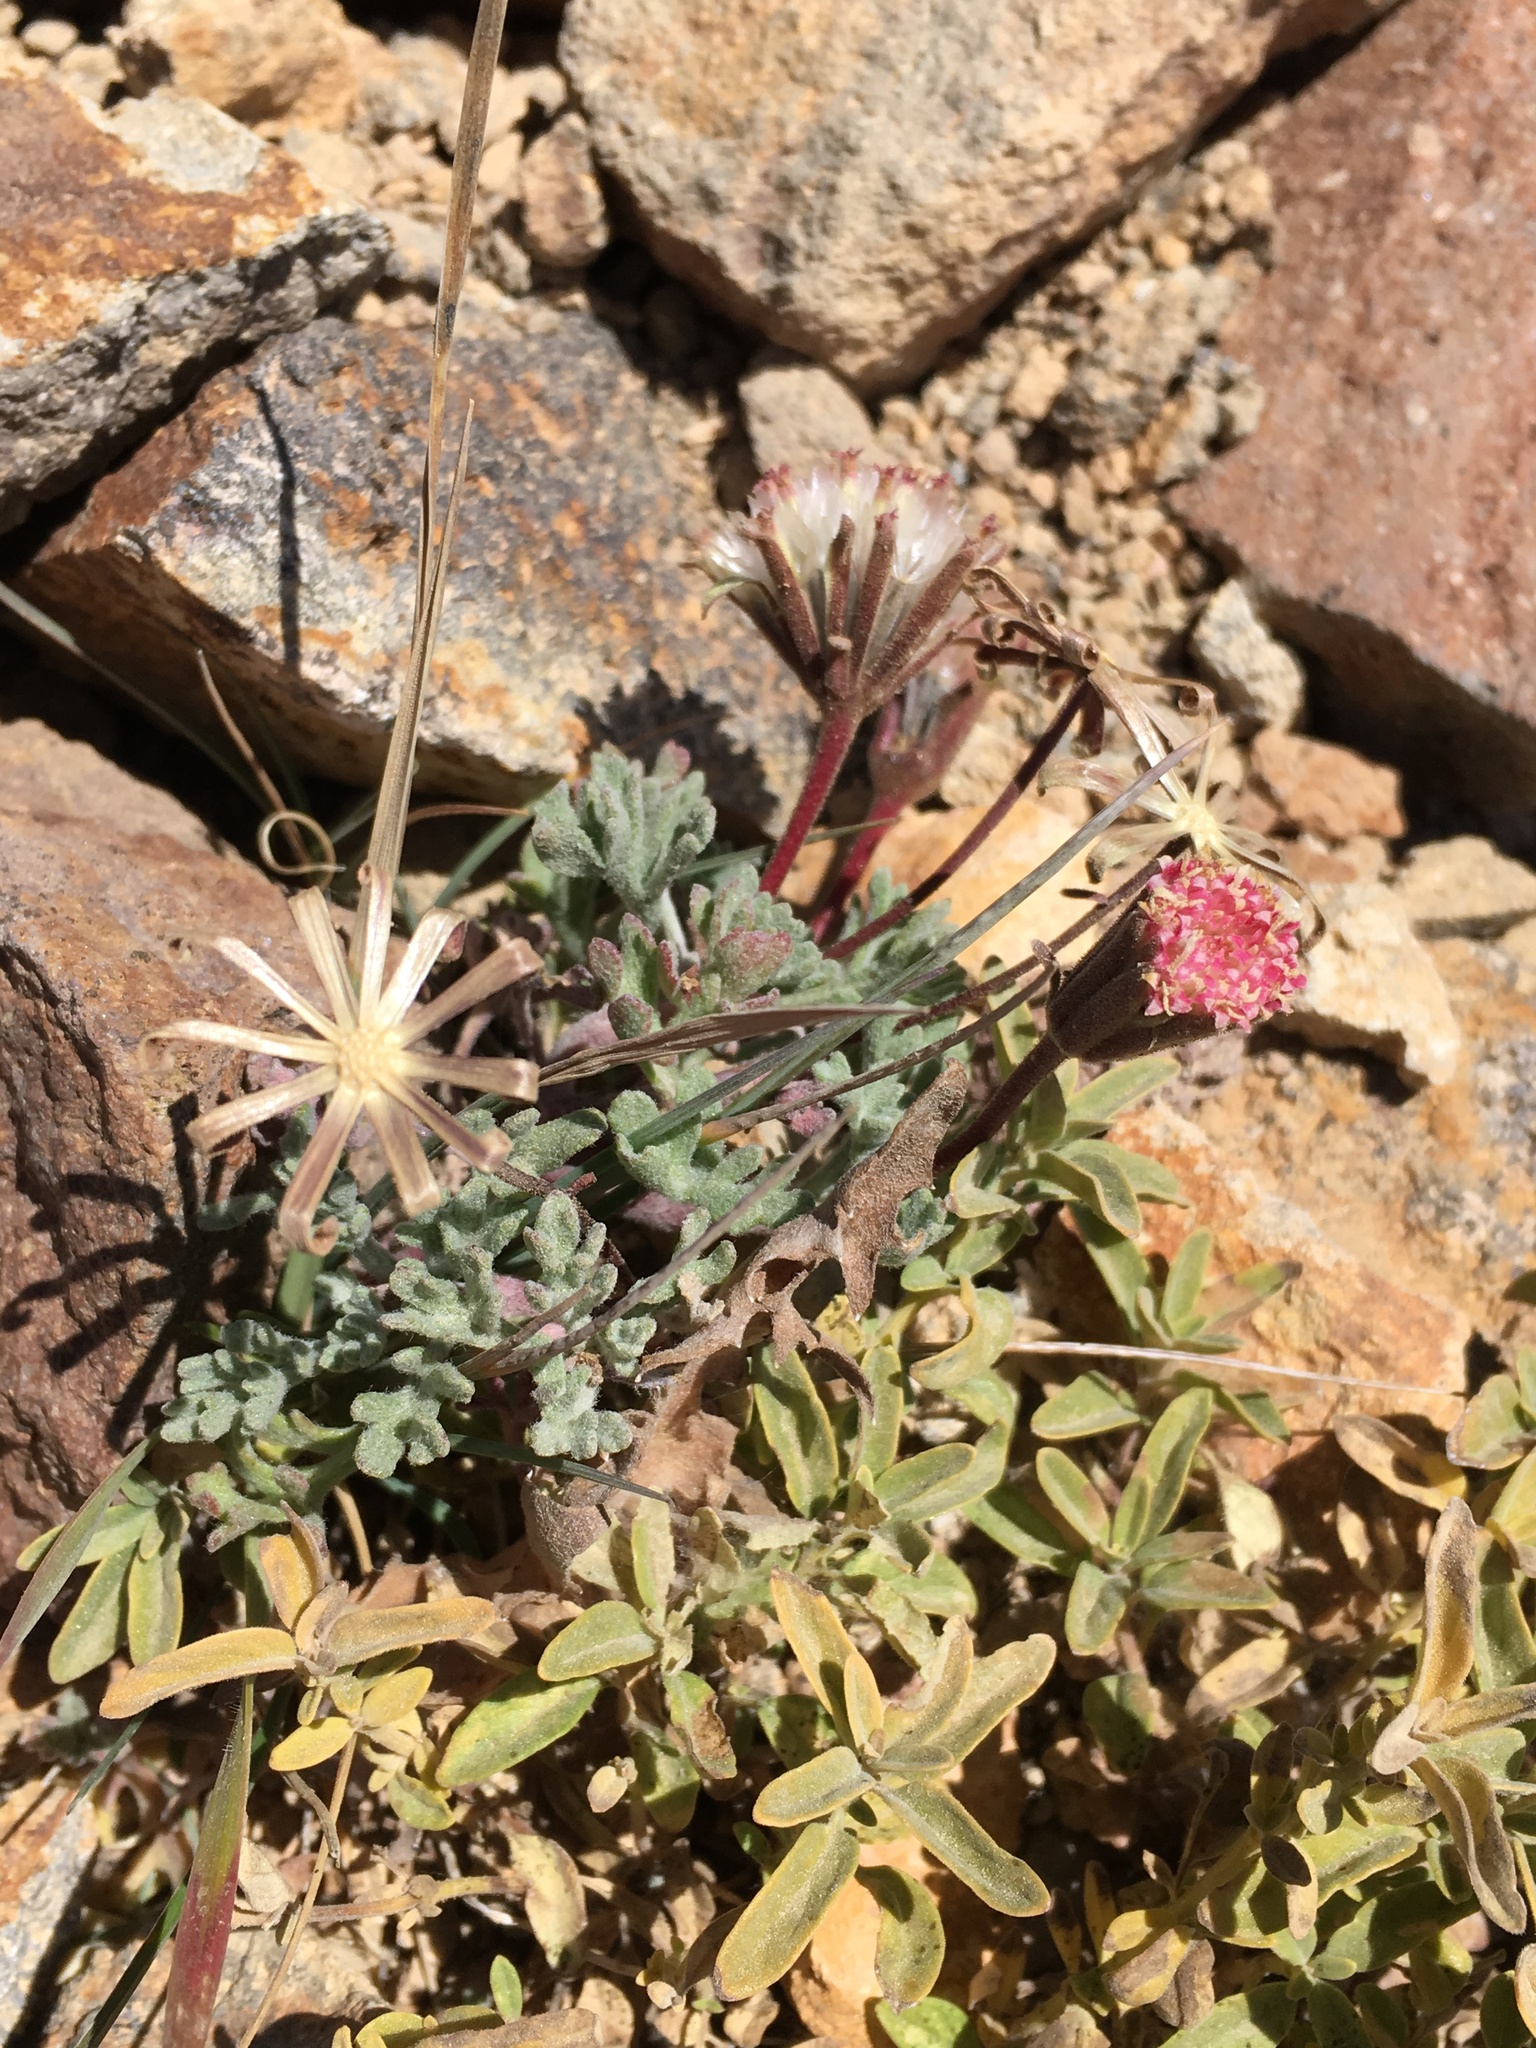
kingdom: Plantae
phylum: Tracheophyta
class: Magnoliopsida
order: Asterales
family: Asteraceae
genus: Chaenactis
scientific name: Chaenactis nevadensis
